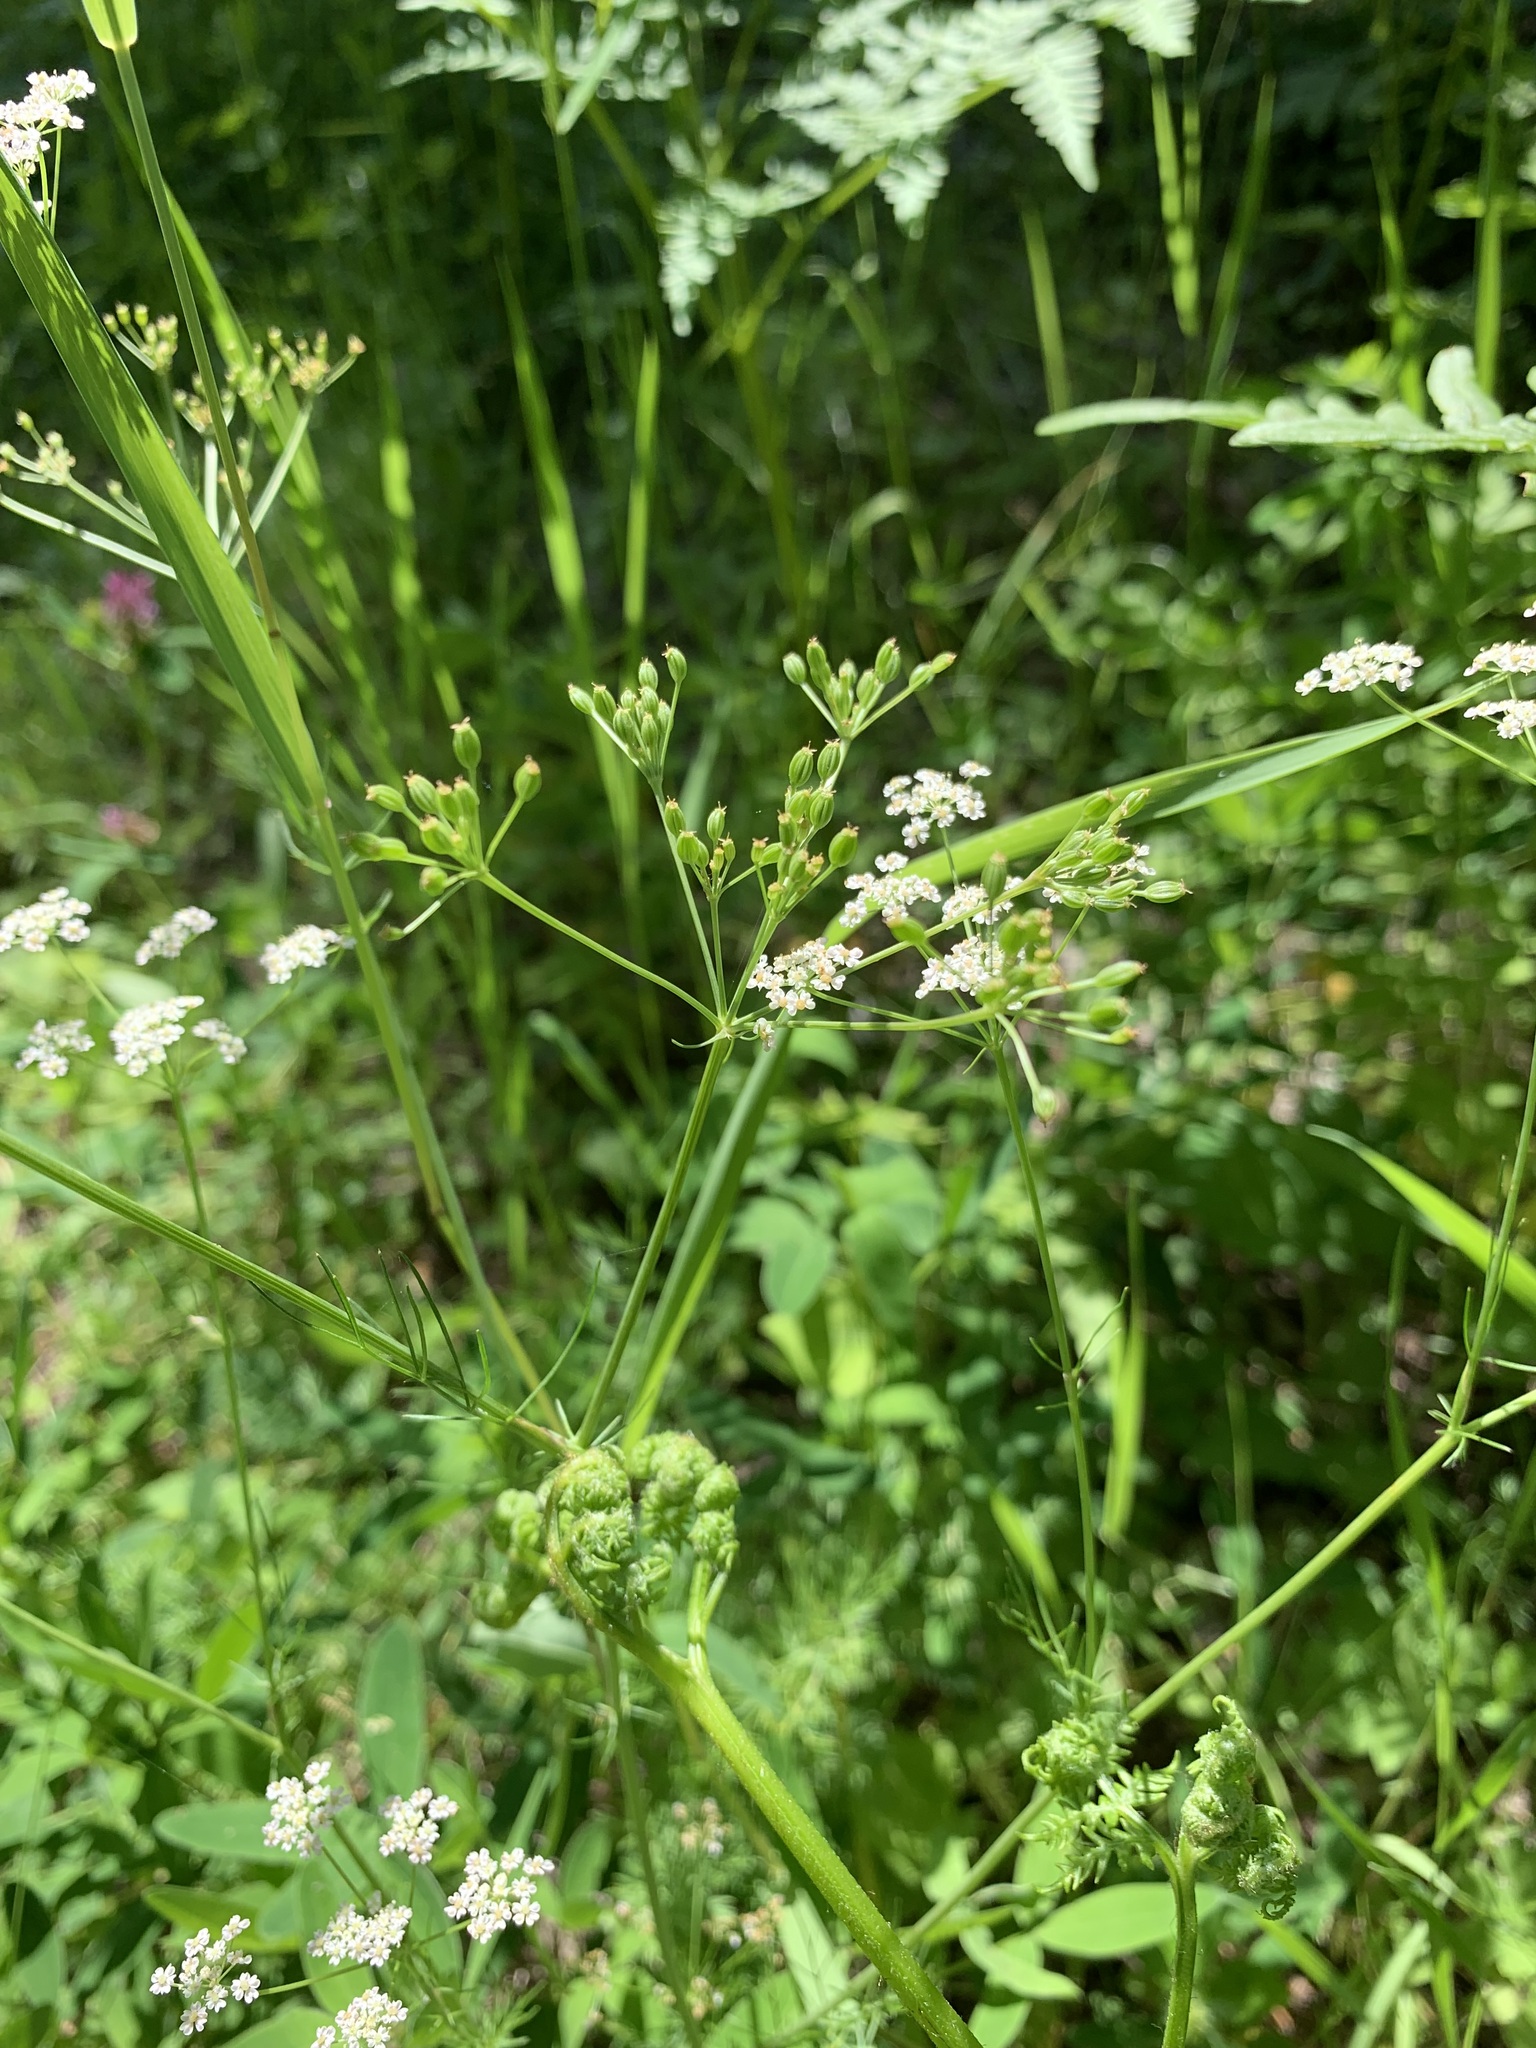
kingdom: Plantae
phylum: Tracheophyta
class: Magnoliopsida
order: Apiales
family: Apiaceae
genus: Carum
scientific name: Carum carvi
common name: Caraway
